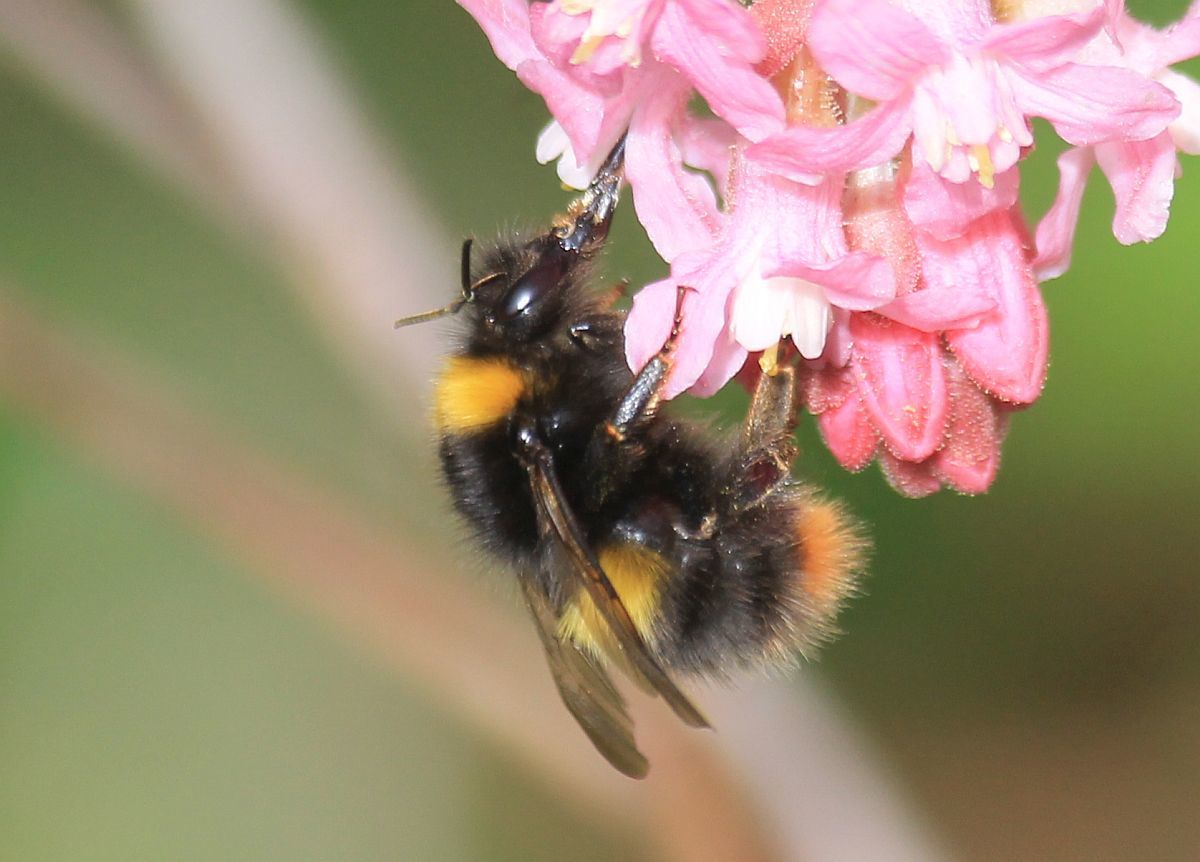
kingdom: Animalia
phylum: Arthropoda
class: Insecta
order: Hymenoptera
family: Apidae
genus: Bombus
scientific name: Bombus pratorum
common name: Early humble-bee
